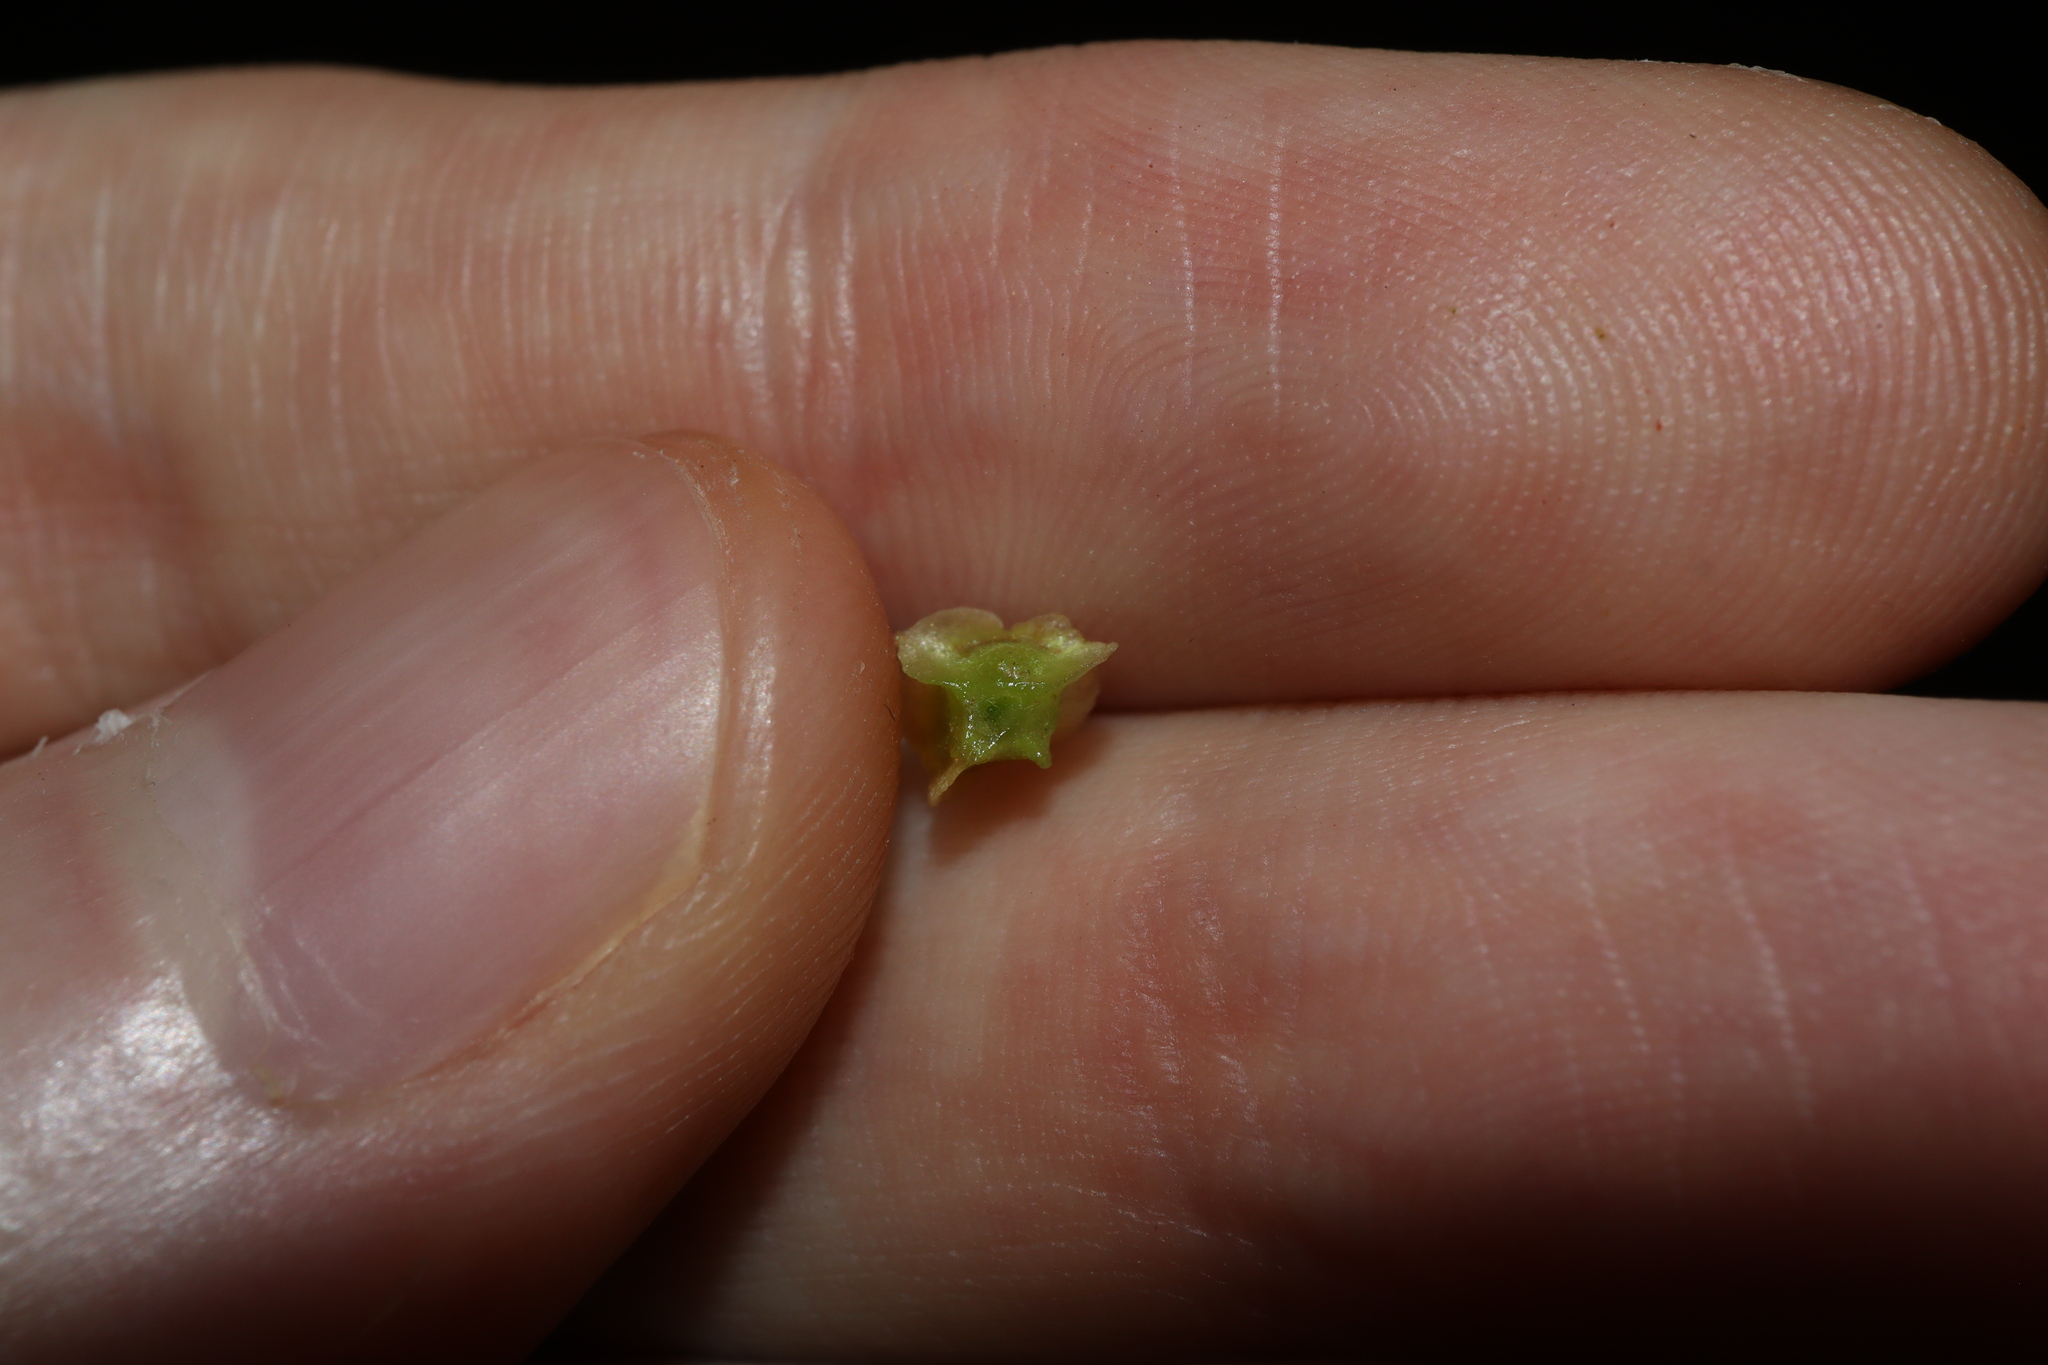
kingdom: Plantae
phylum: Tracheophyta
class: Magnoliopsida
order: Caryophyllales
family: Amaranthaceae
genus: Maireana
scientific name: Maireana triptera
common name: Three-wing bluebush
